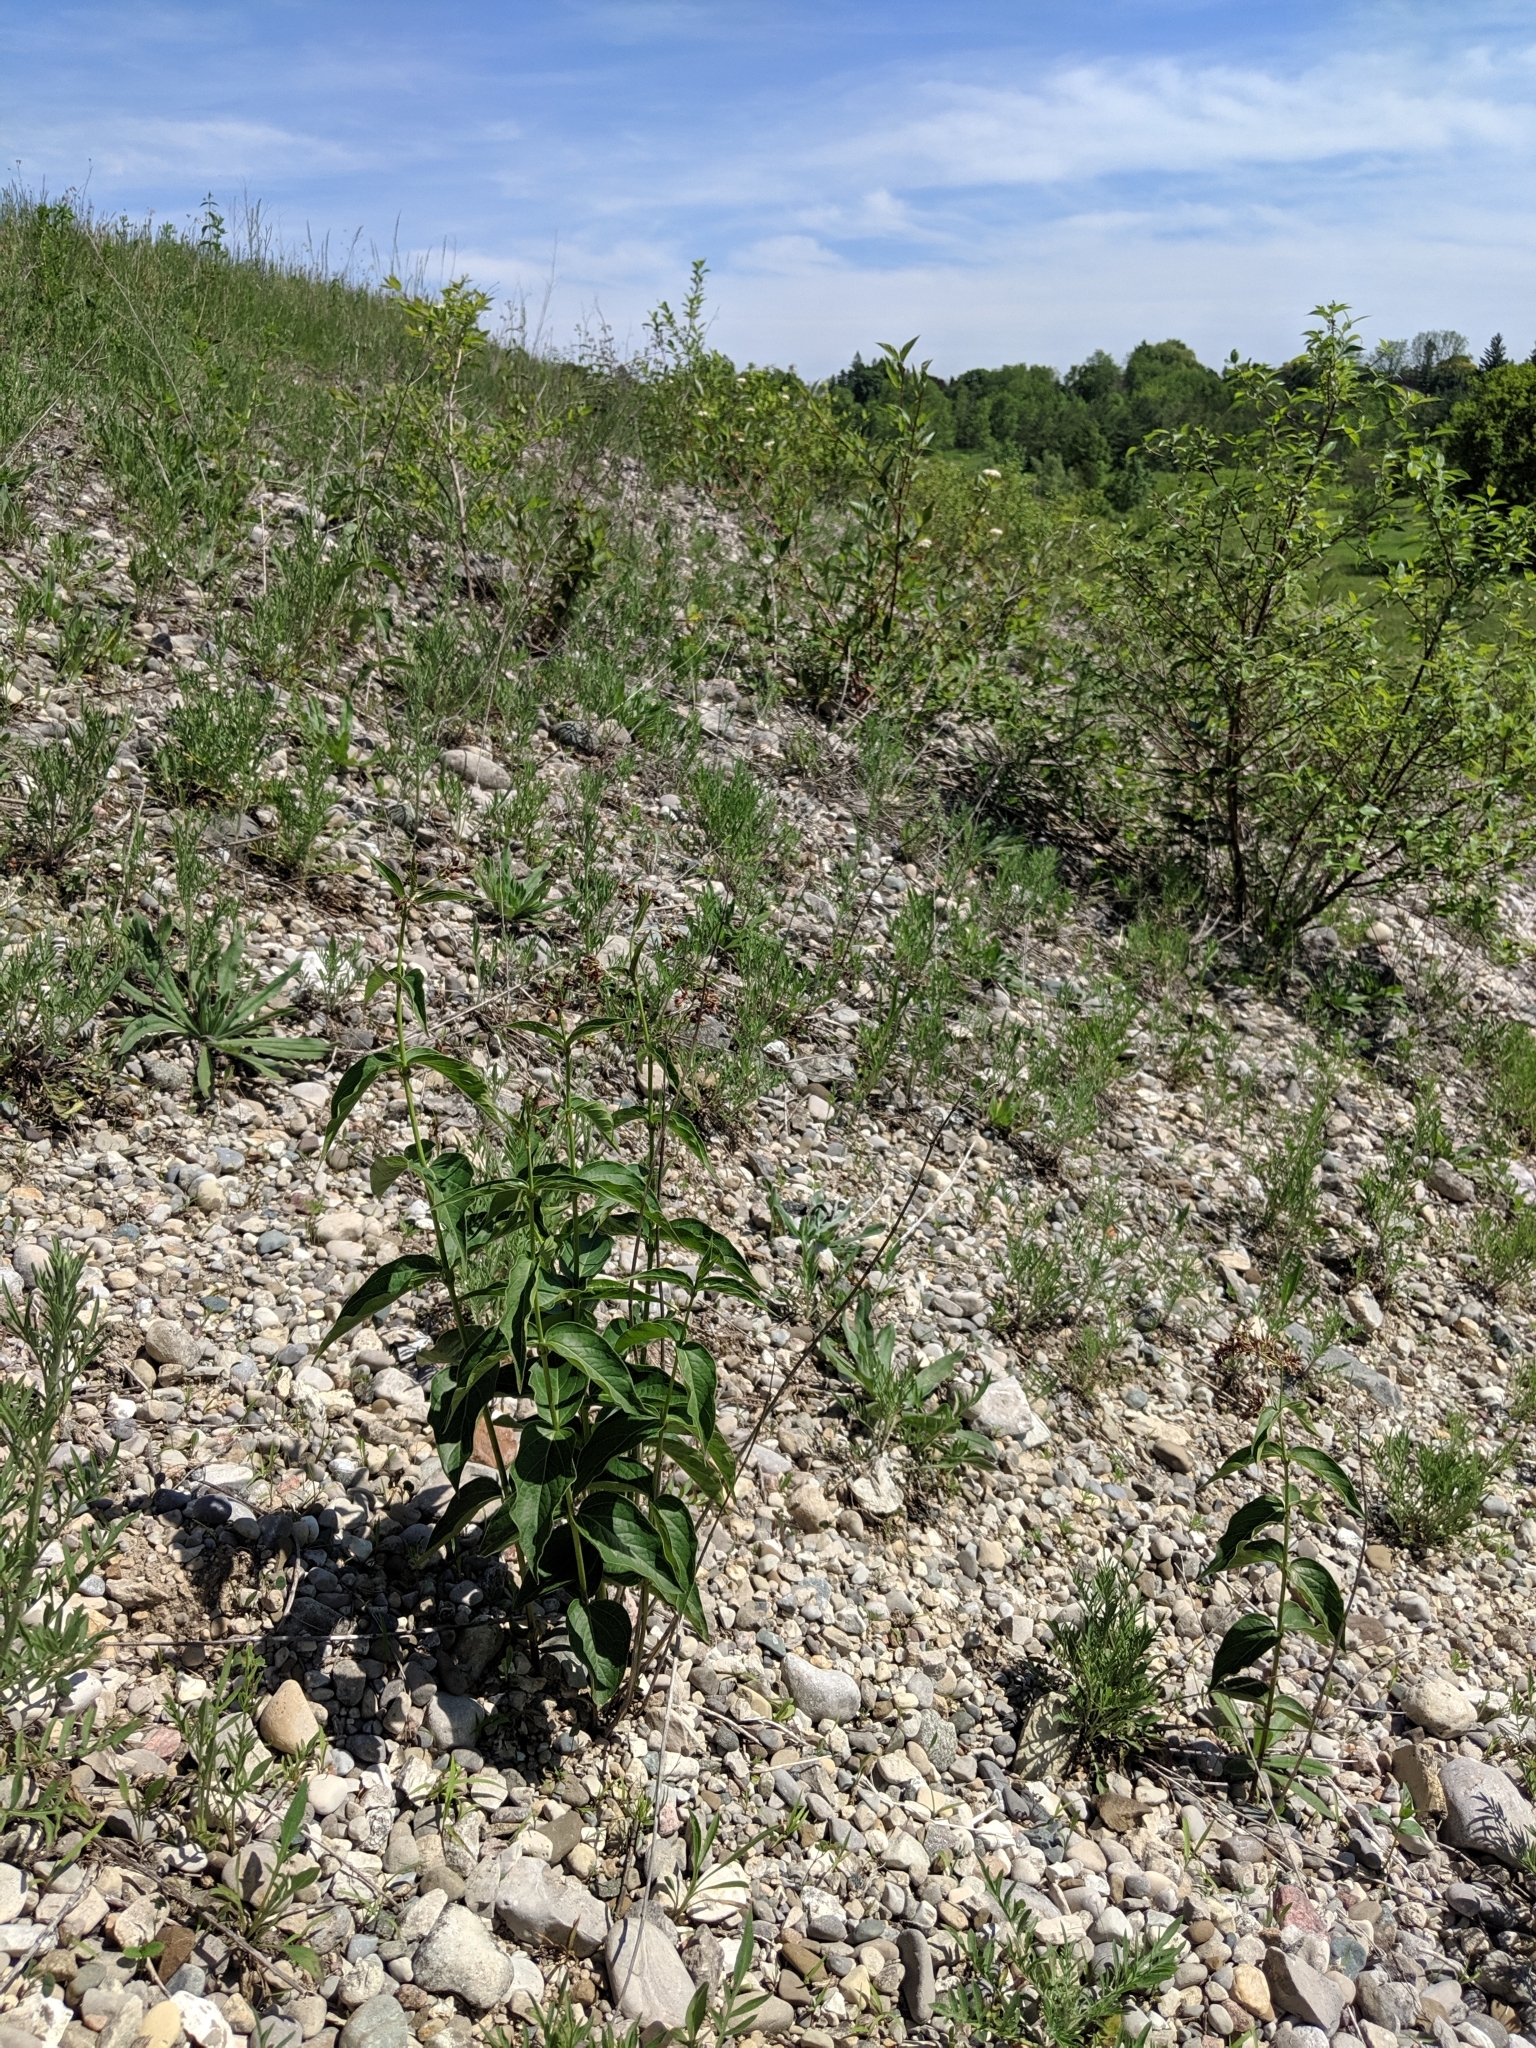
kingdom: Plantae
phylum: Tracheophyta
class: Magnoliopsida
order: Gentianales
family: Apocynaceae
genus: Vincetoxicum
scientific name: Vincetoxicum rossicum
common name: Dog-strangling vine
